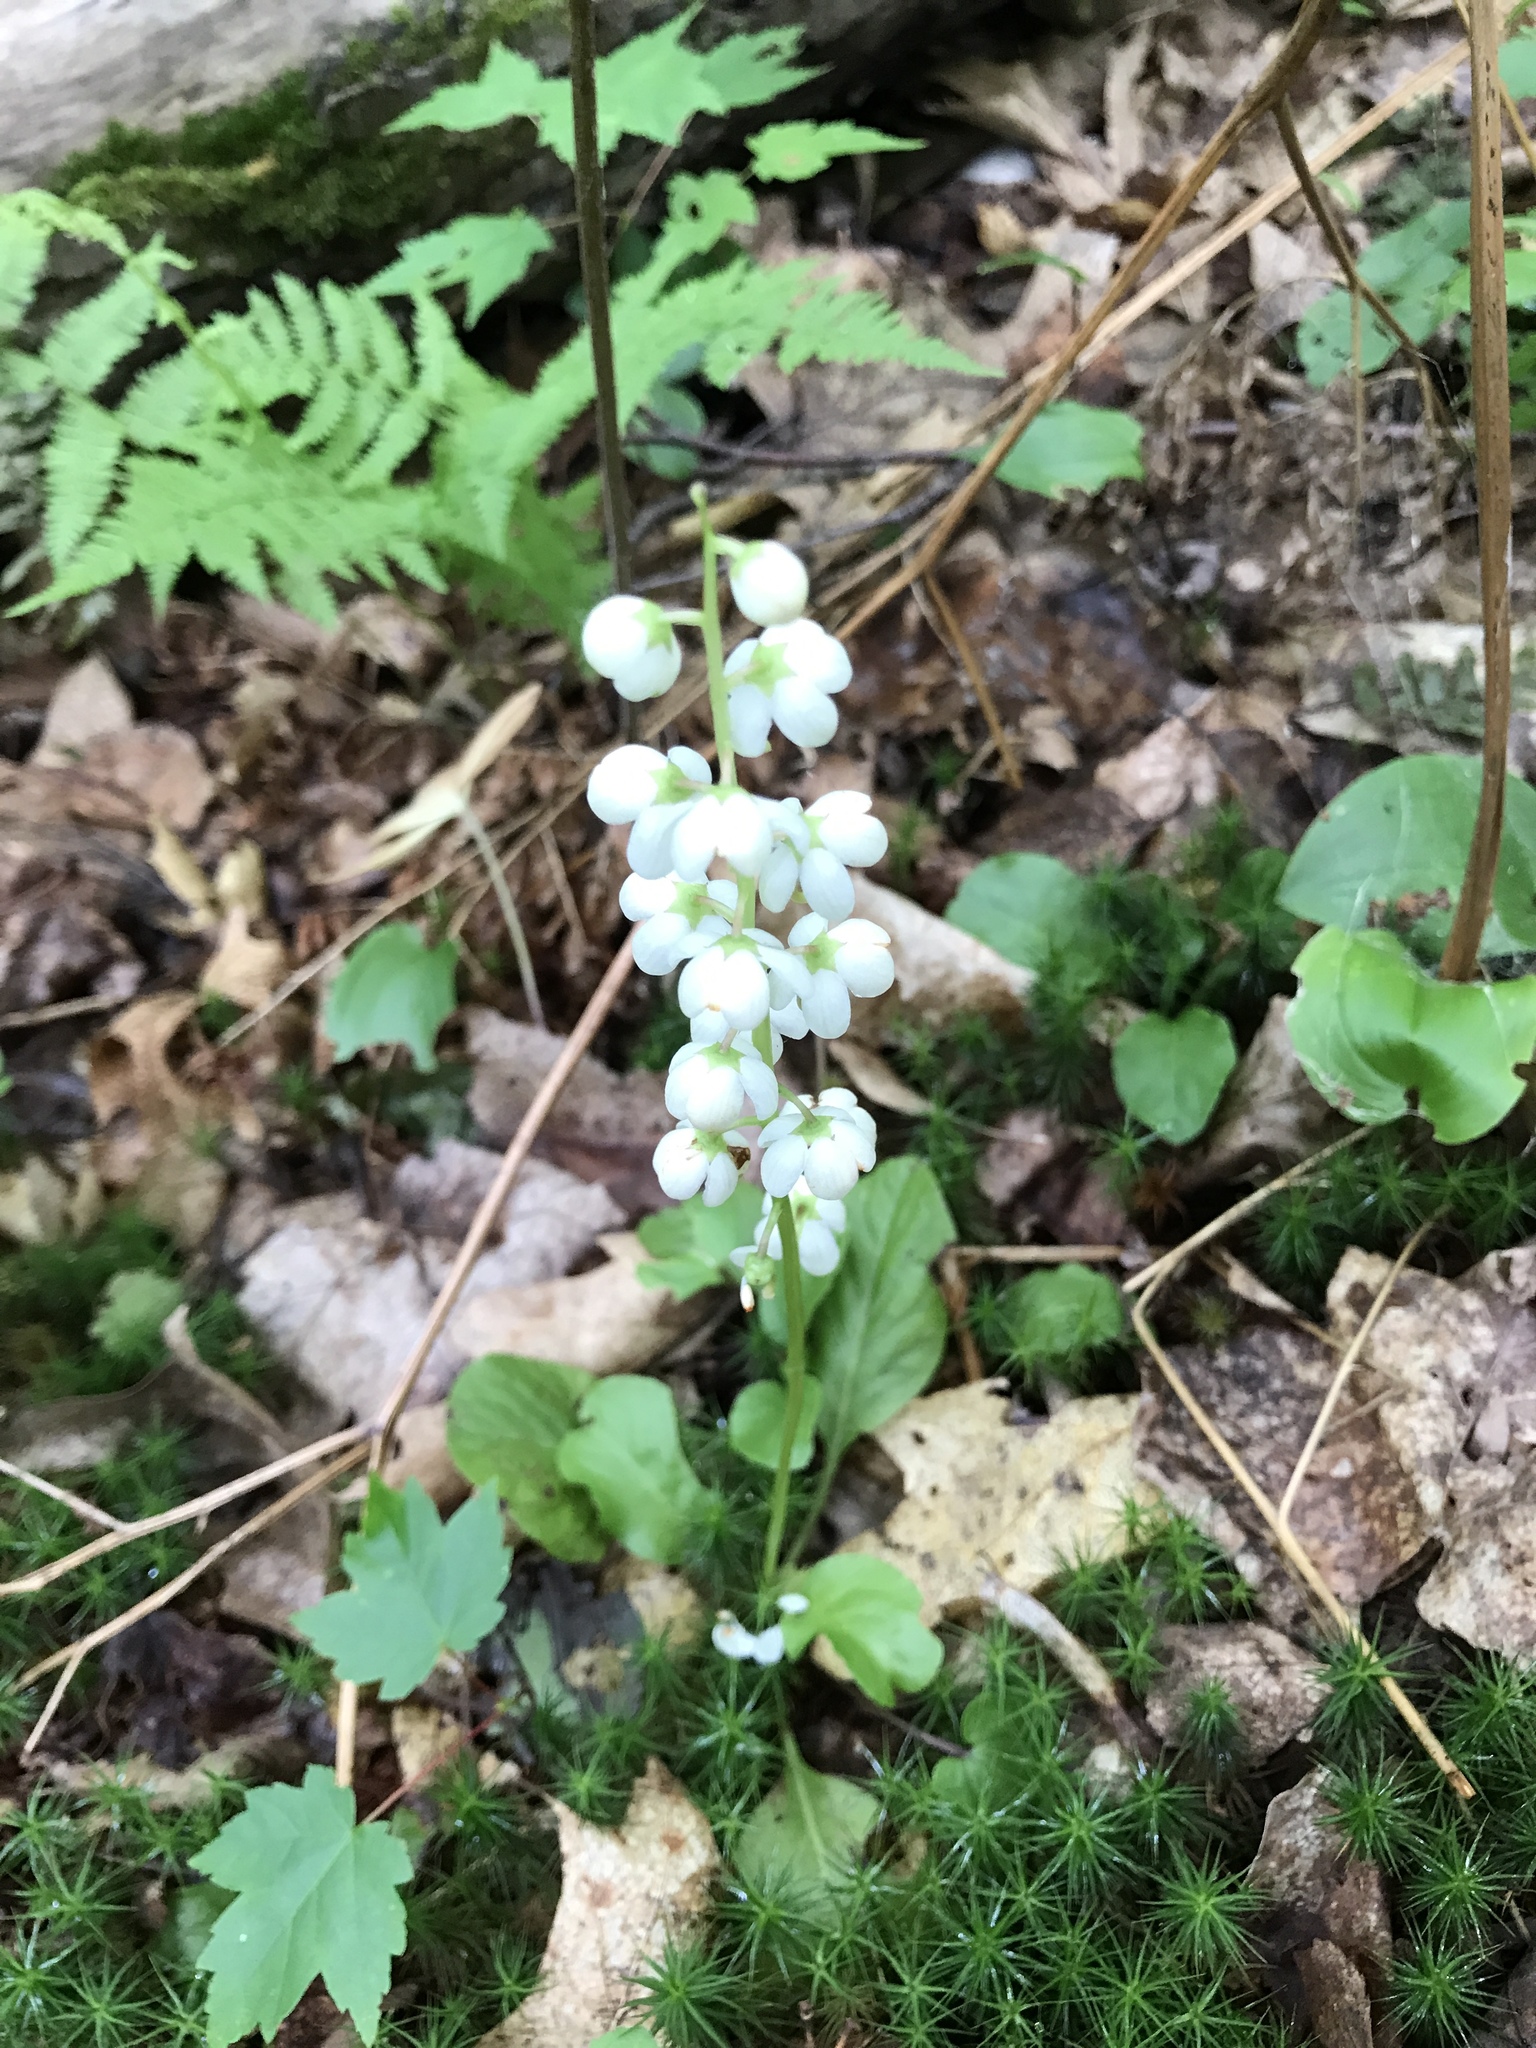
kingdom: Plantae
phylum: Tracheophyta
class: Magnoliopsida
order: Ericales
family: Ericaceae
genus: Pyrola
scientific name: Pyrola elliptica
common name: Shinleaf
